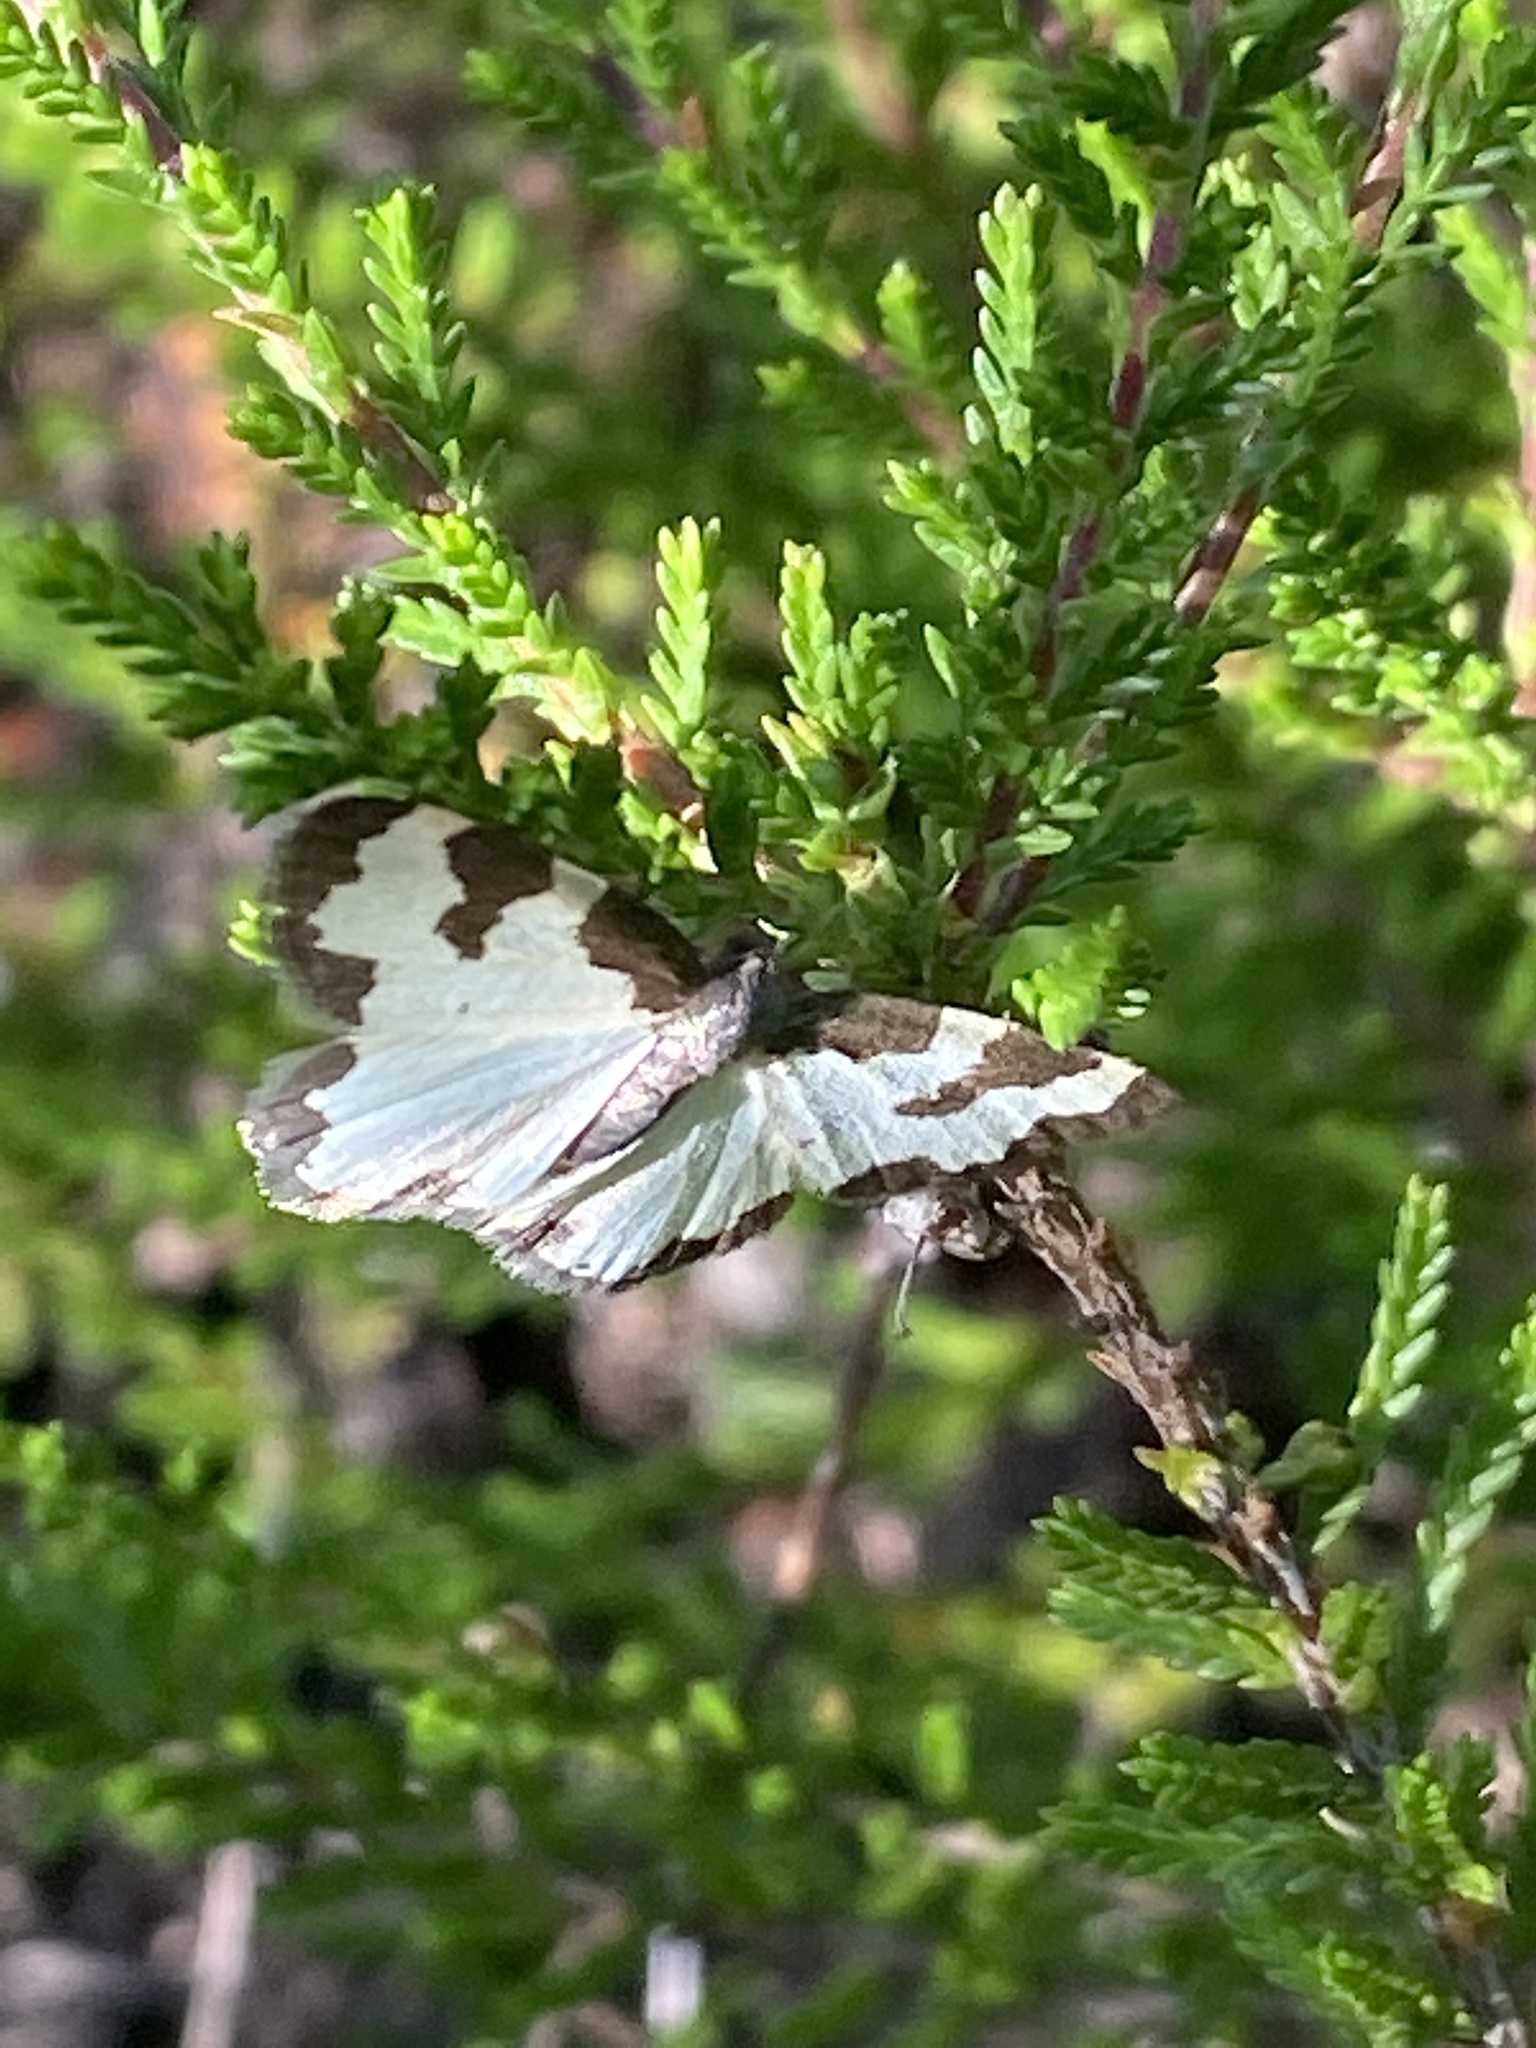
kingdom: Animalia
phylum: Arthropoda
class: Insecta
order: Lepidoptera
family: Geometridae
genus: Lomaspilis
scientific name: Lomaspilis marginata
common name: Clouded border
